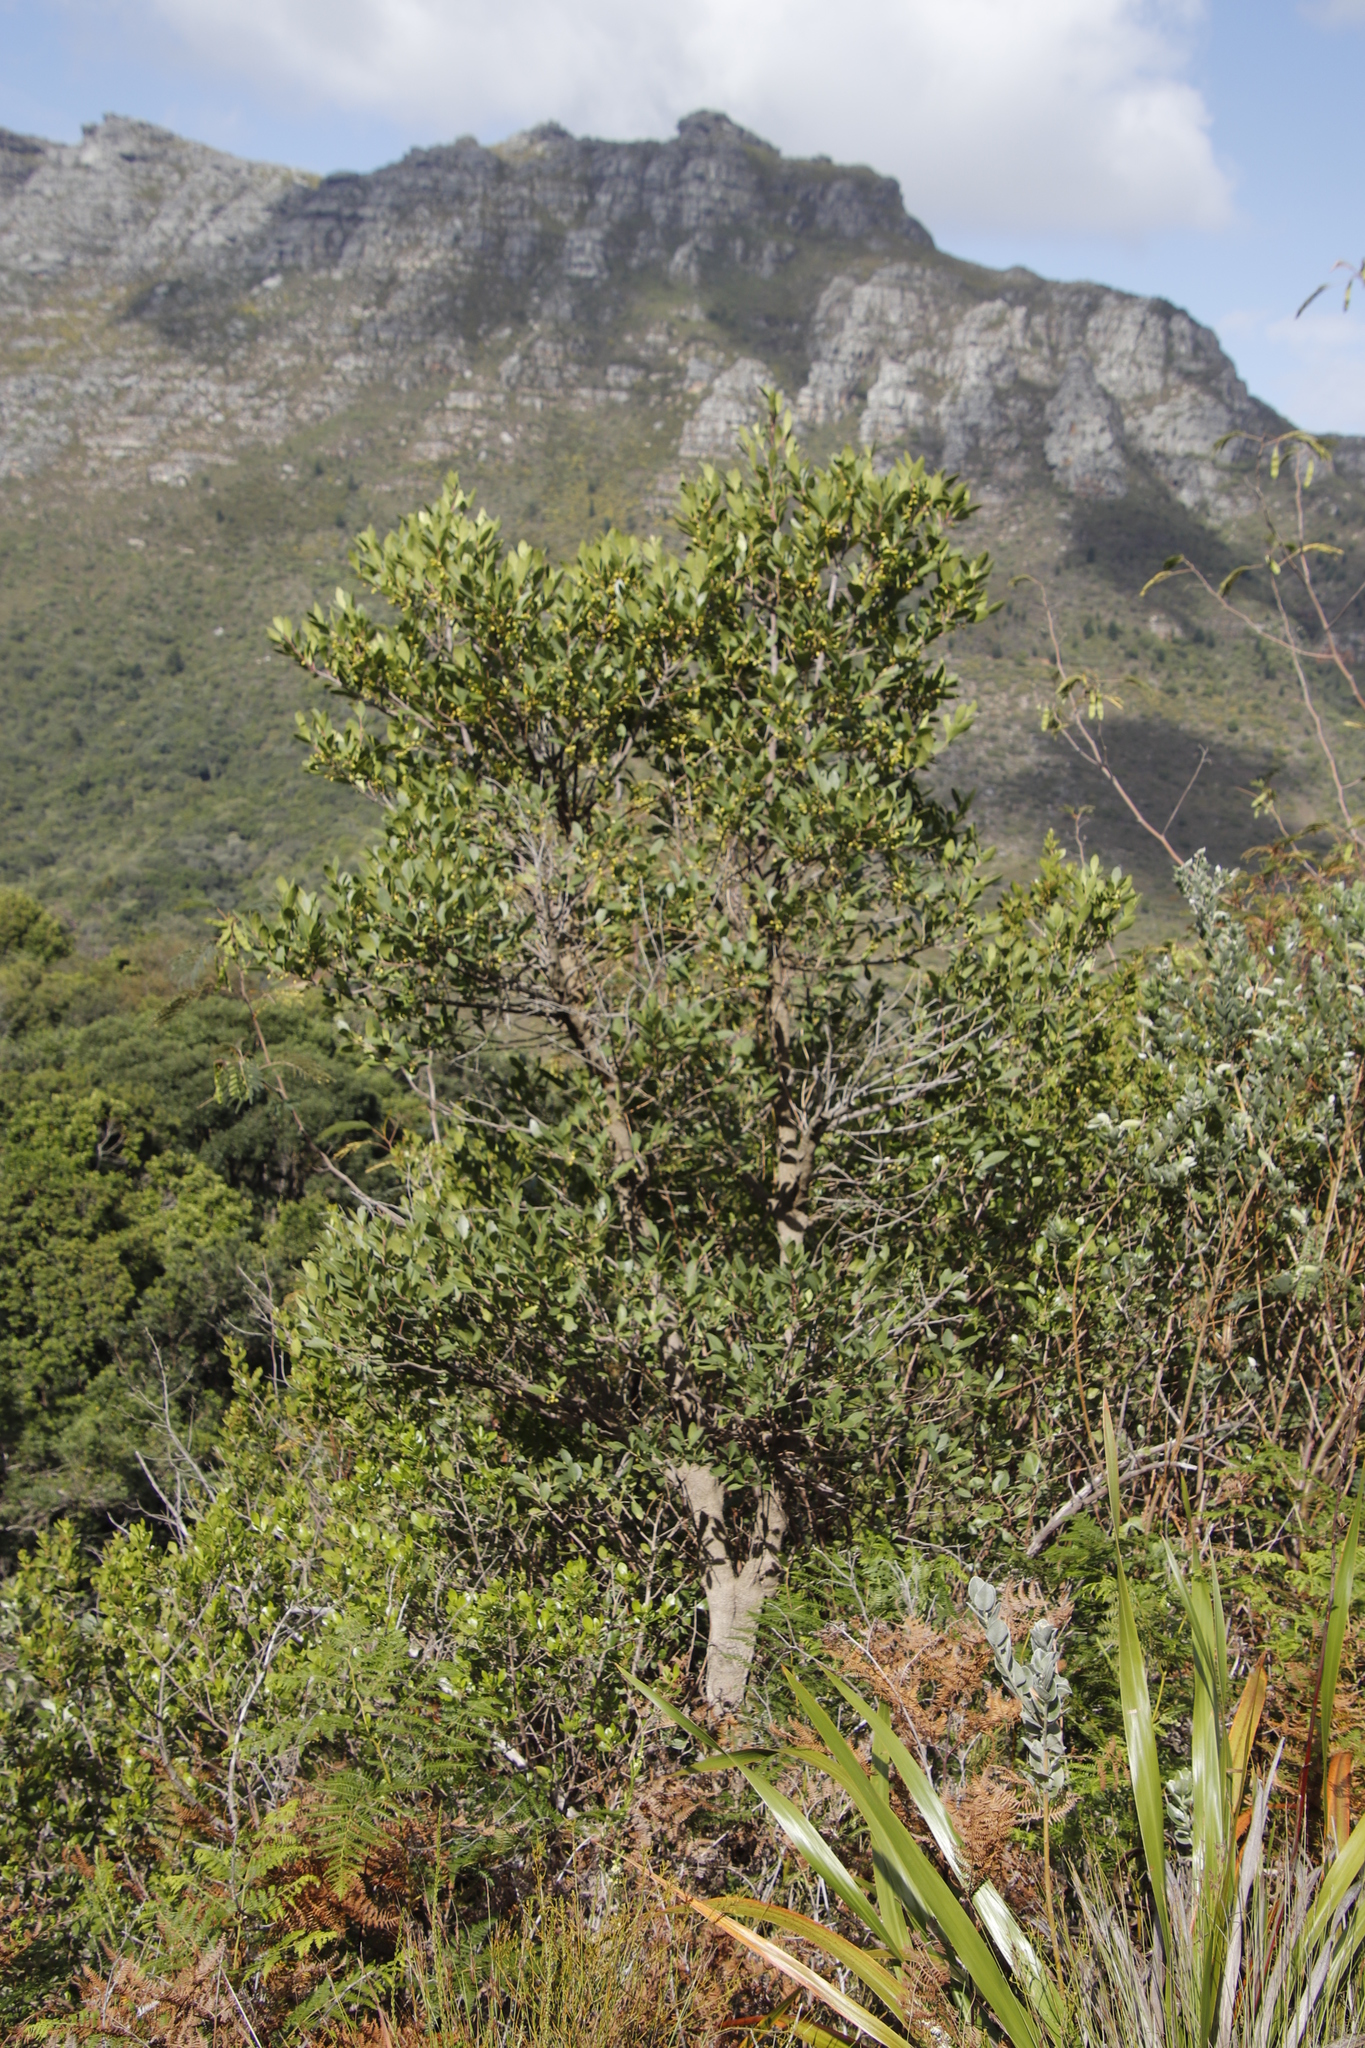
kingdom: Plantae
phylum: Tracheophyta
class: Magnoliopsida
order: Celastrales
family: Celastraceae
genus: Gymnosporia
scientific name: Gymnosporia laurina
